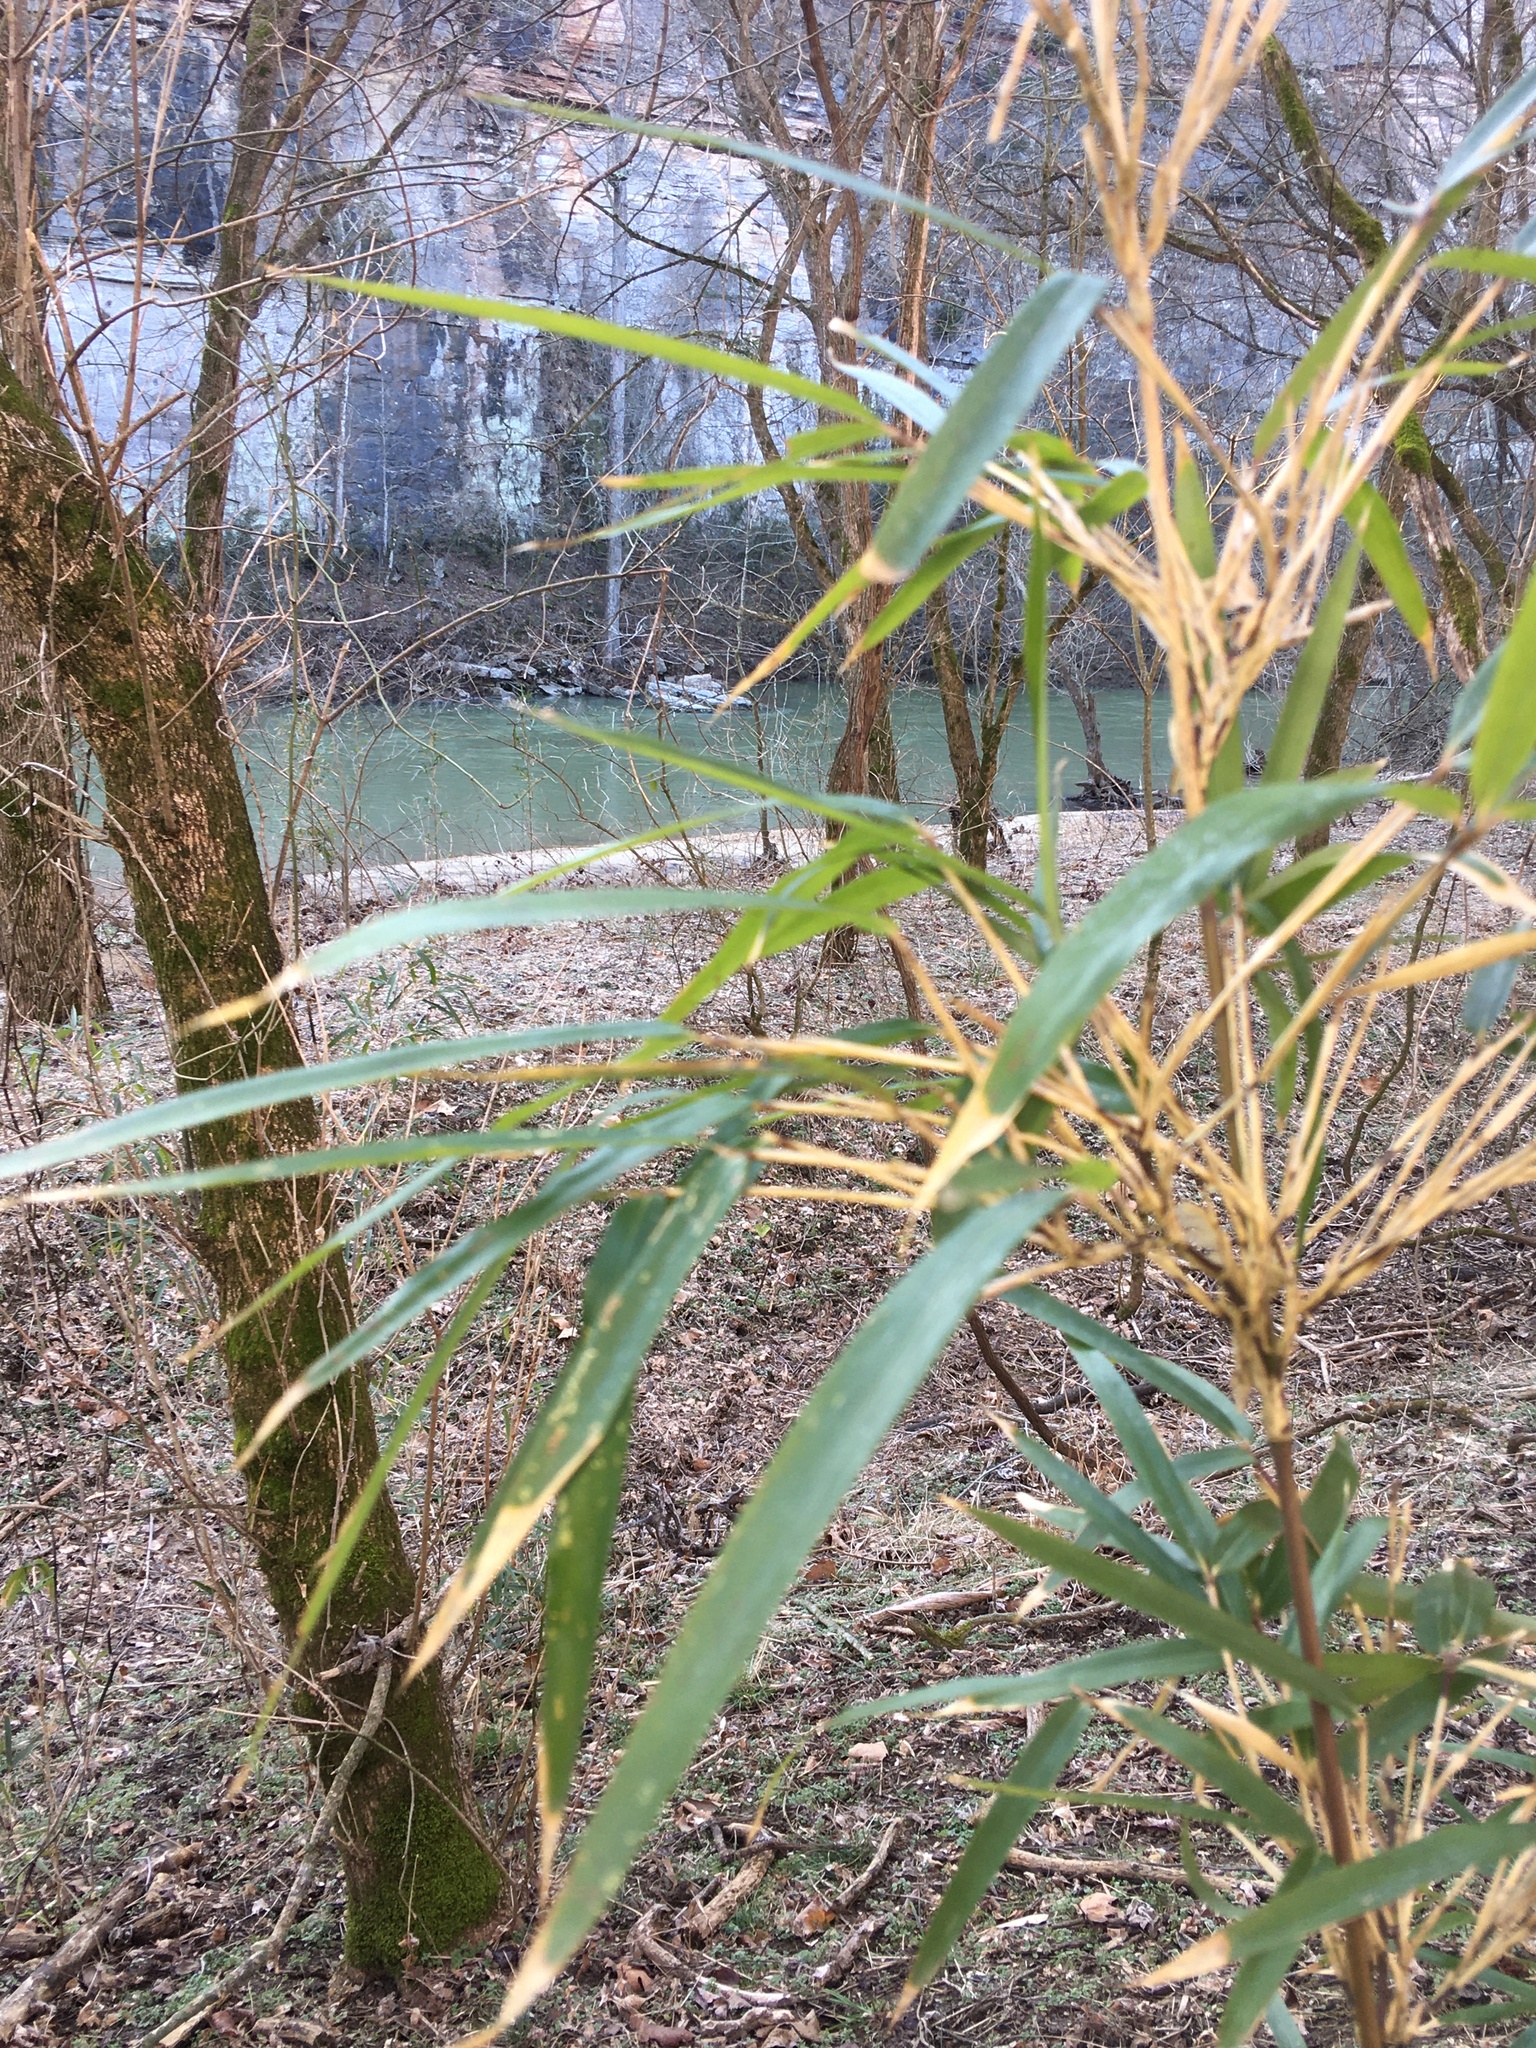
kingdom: Plantae
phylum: Tracheophyta
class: Liliopsida
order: Poales
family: Poaceae
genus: Arundinaria
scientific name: Arundinaria gigantea
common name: Giant cane
